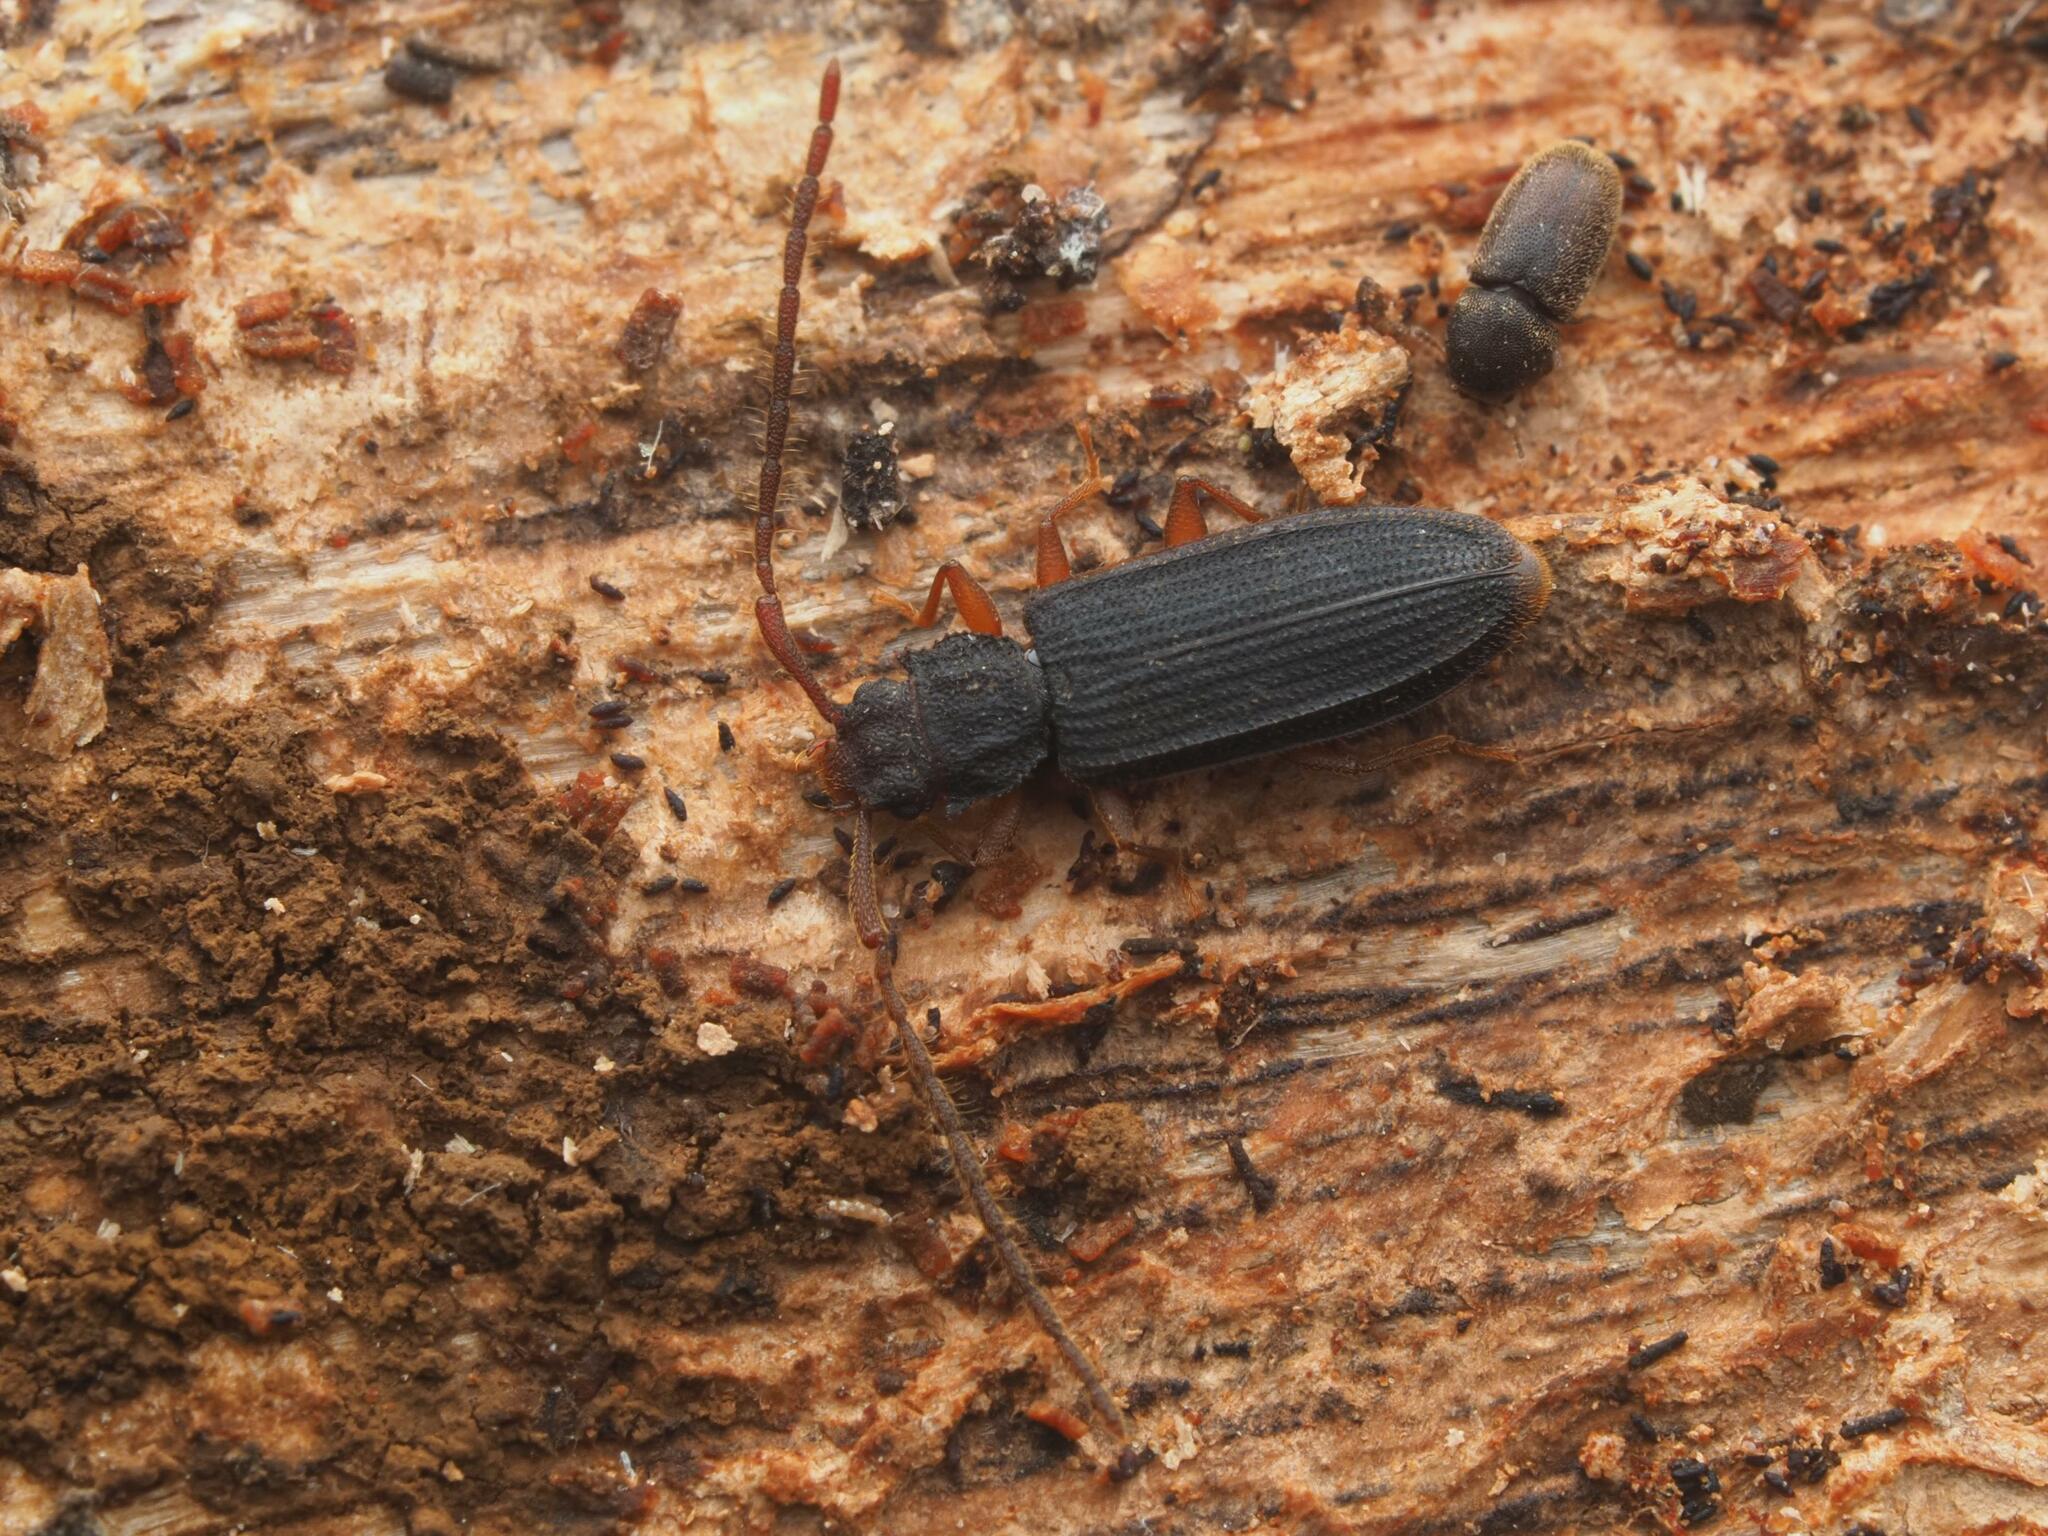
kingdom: Animalia
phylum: Arthropoda
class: Insecta
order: Coleoptera
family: Silvanidae
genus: Uleiota
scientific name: Uleiota planatus
